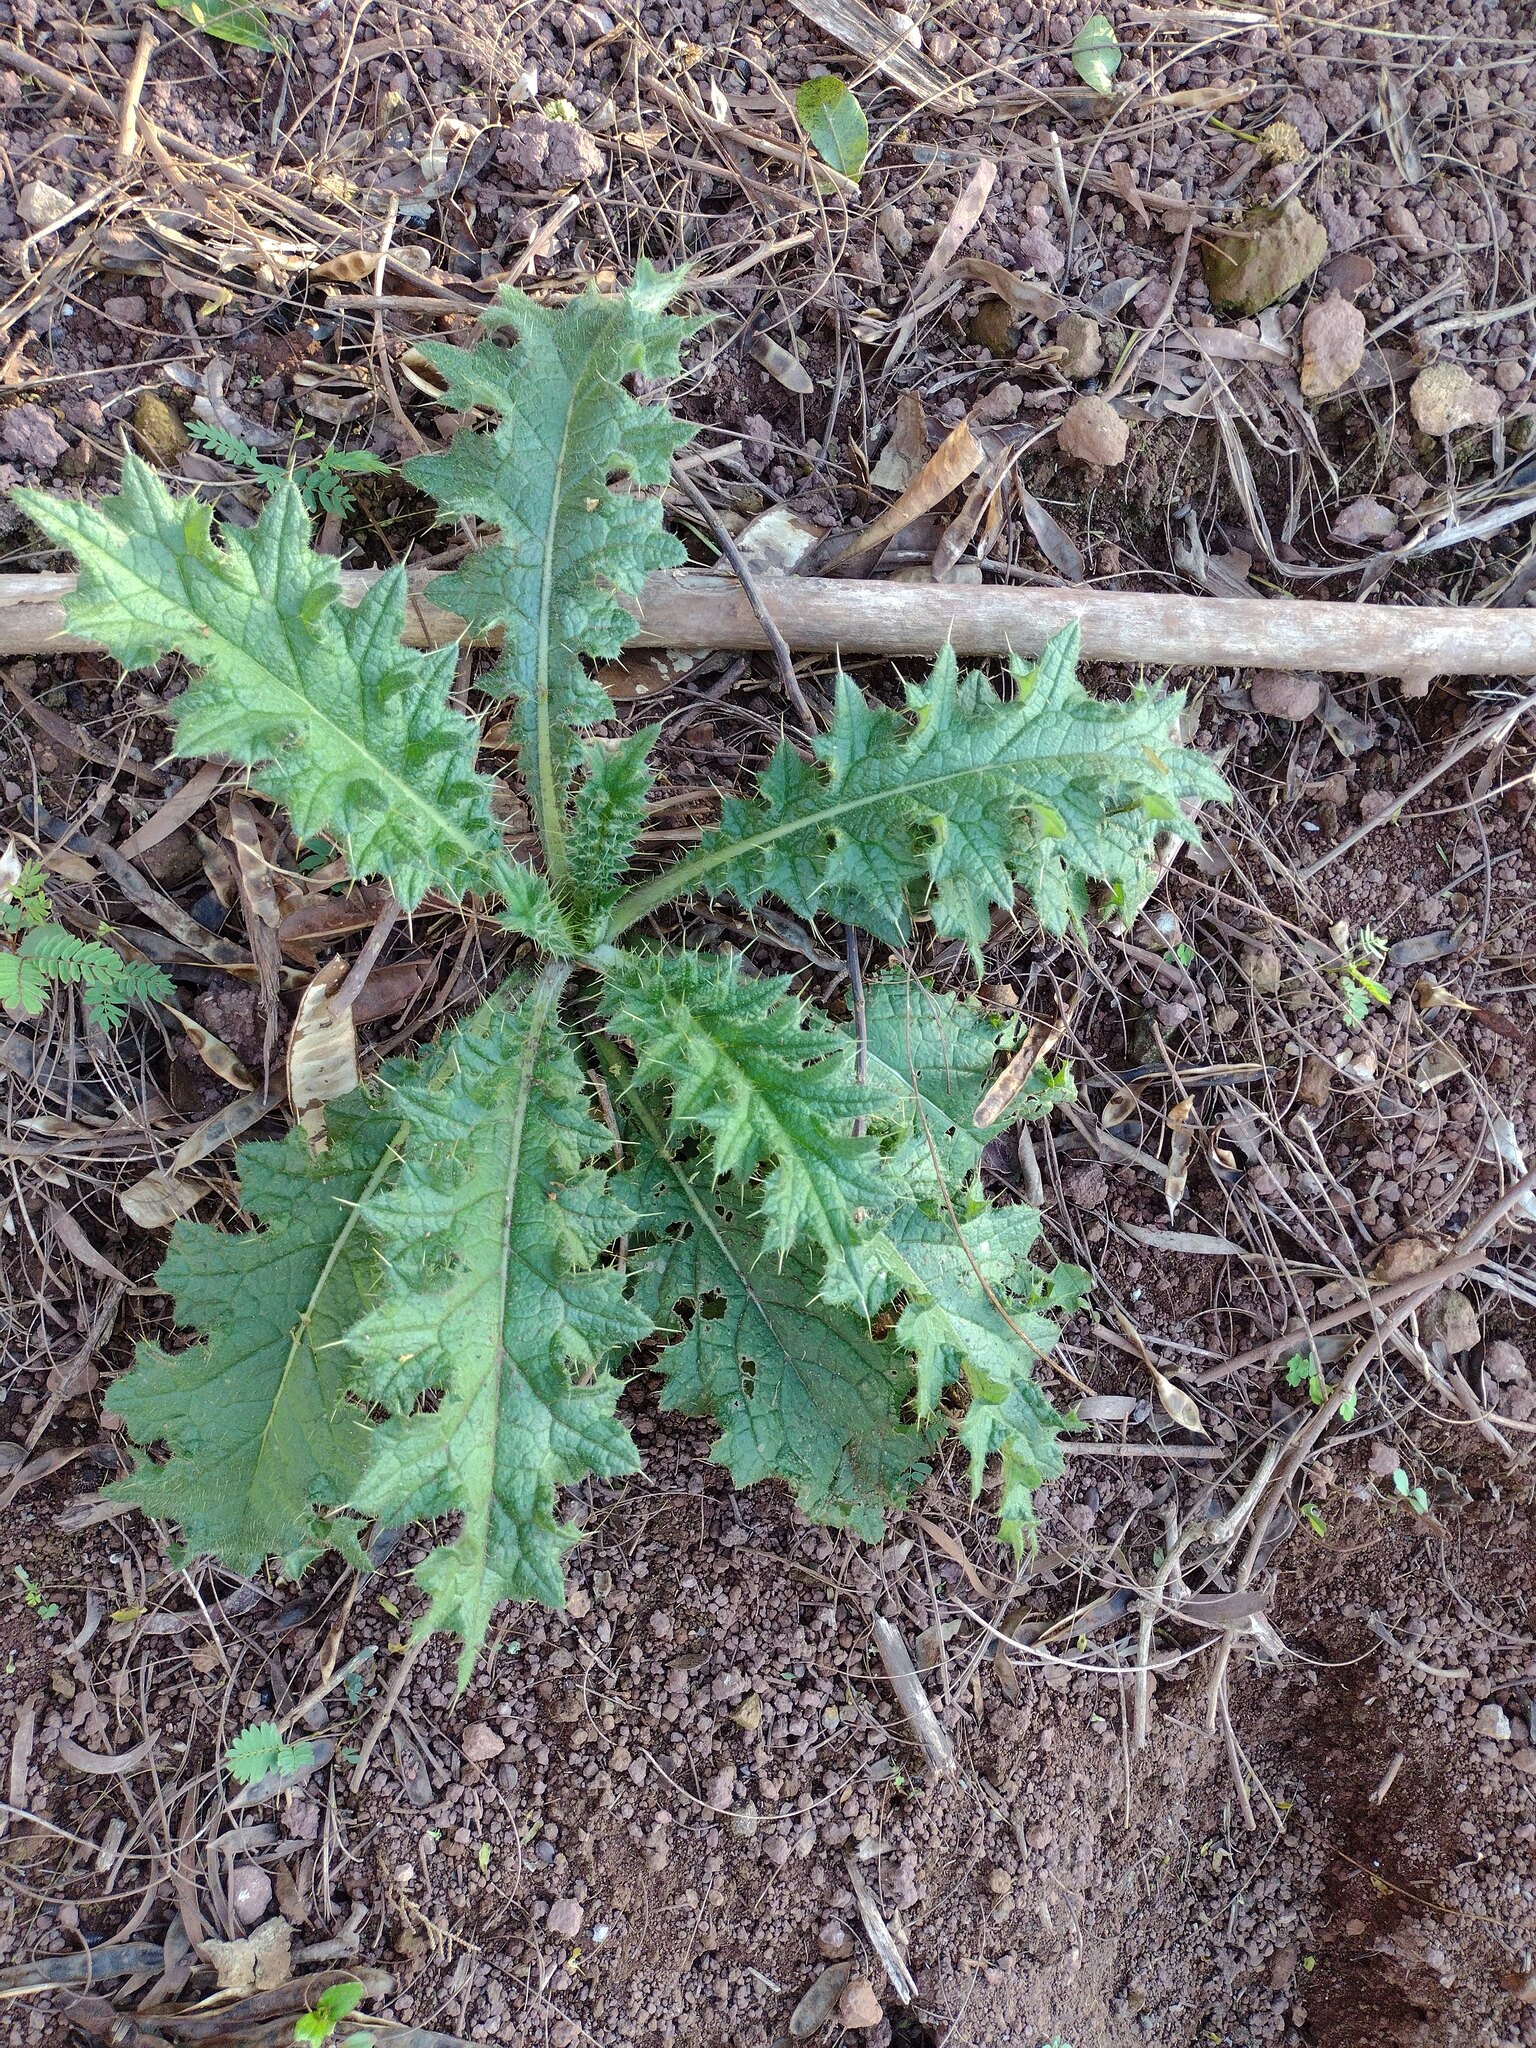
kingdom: Plantae
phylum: Tracheophyta
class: Magnoliopsida
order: Asterales
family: Asteraceae
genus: Cirsium
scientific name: Cirsium vulgare
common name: Bull thistle
